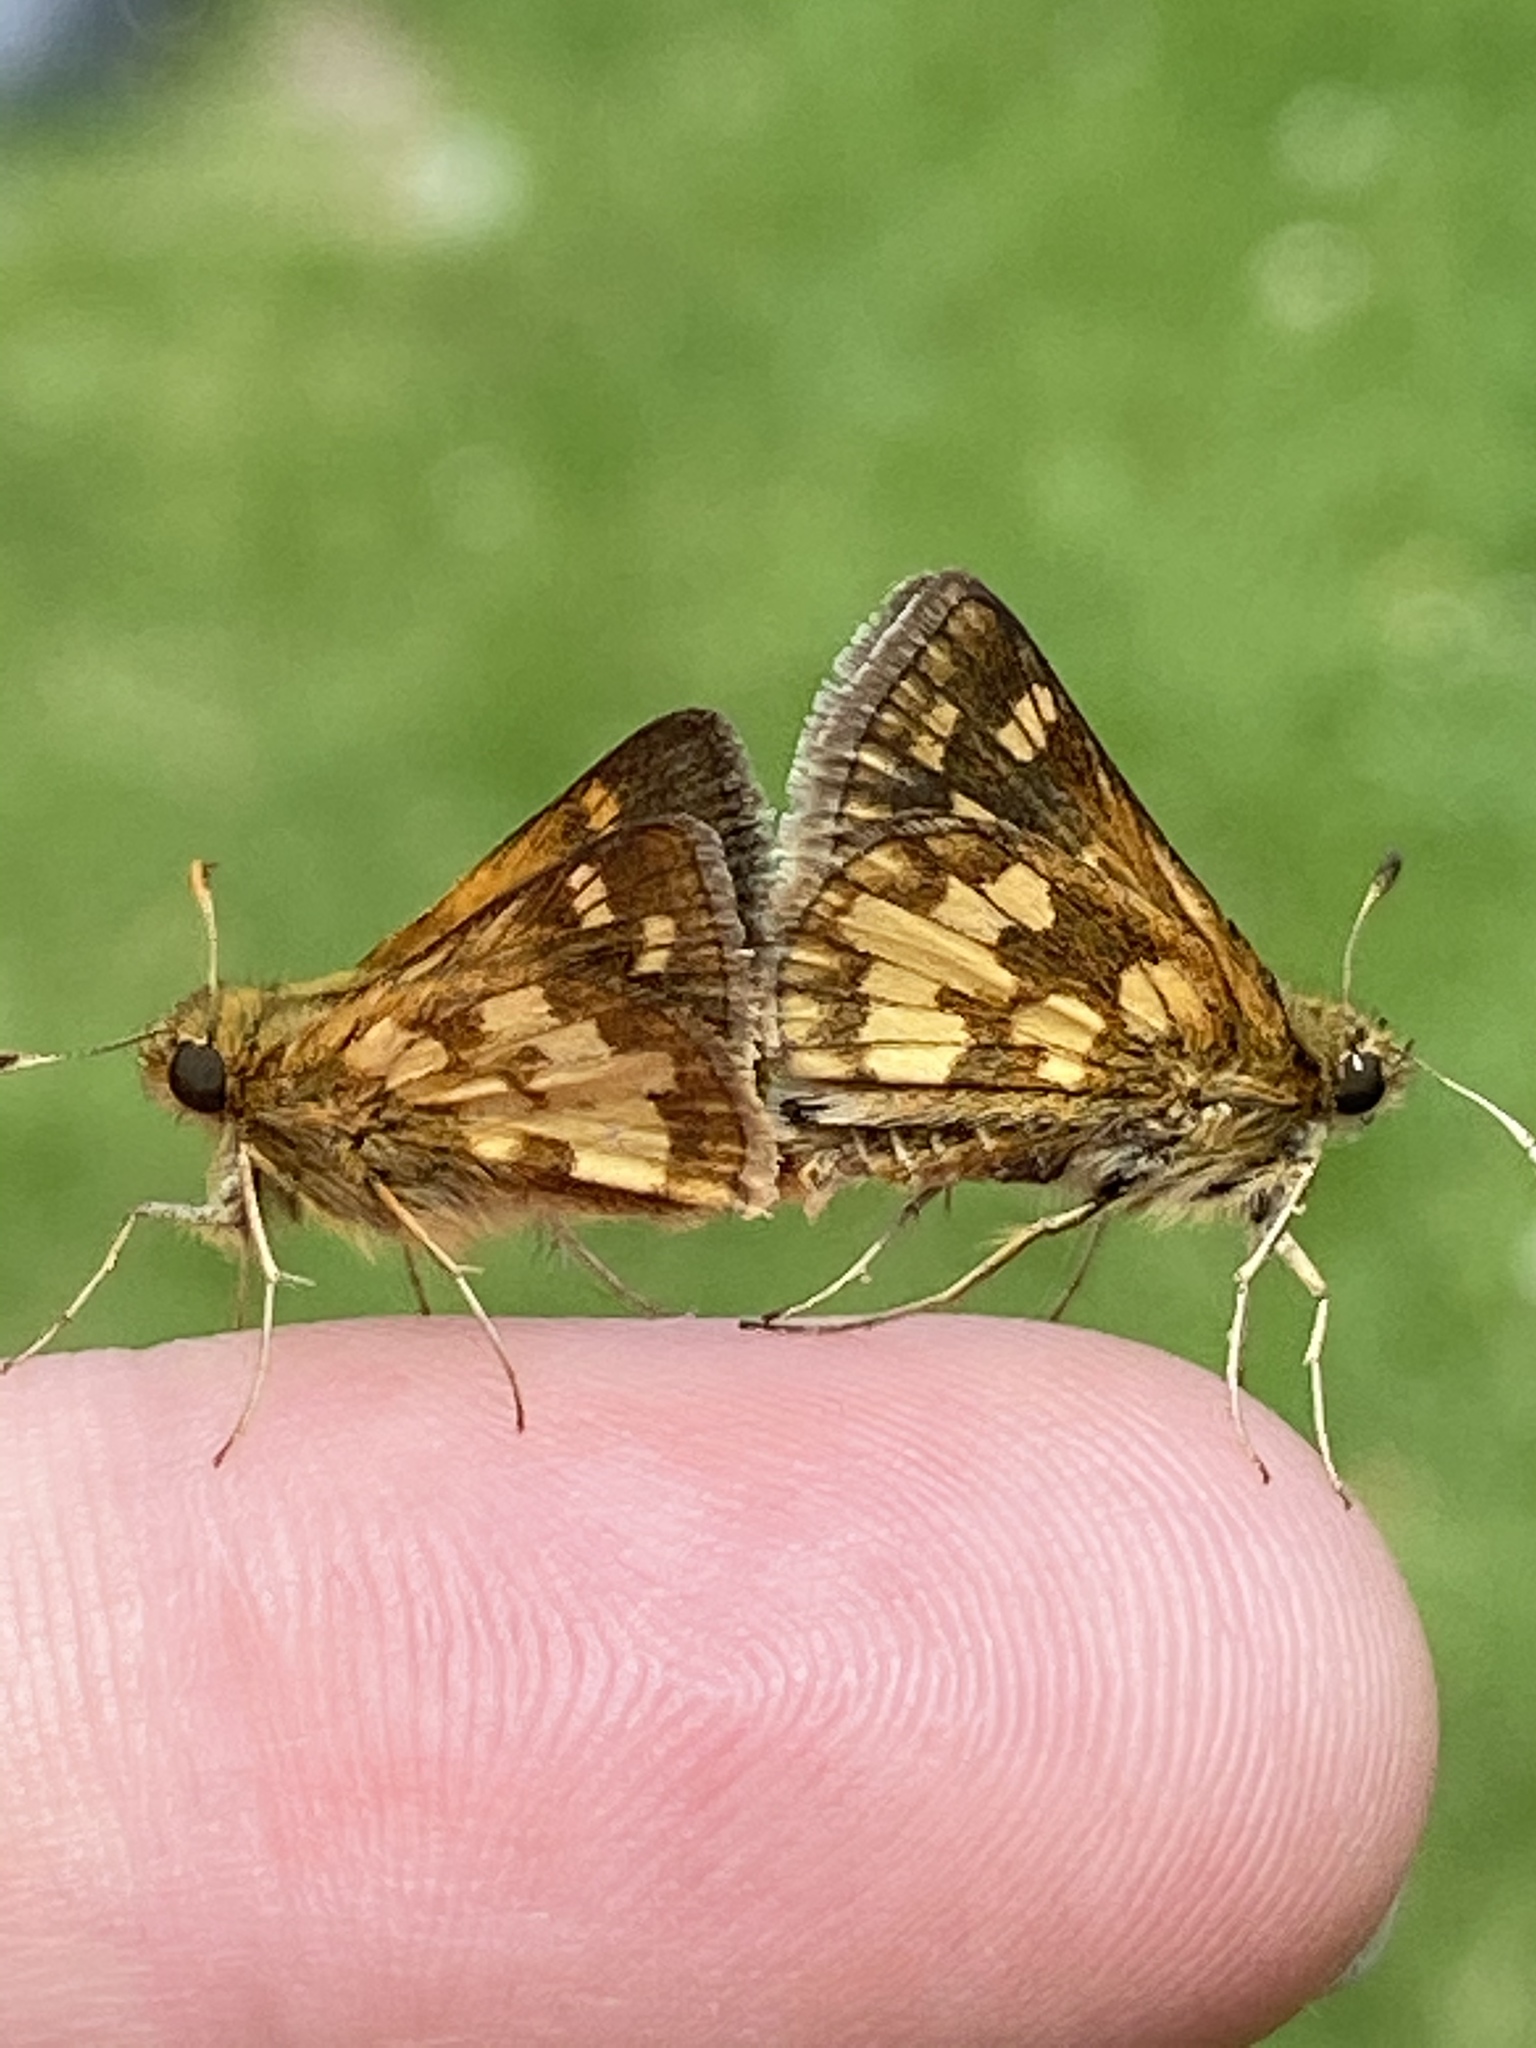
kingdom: Animalia
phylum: Arthropoda
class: Insecta
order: Lepidoptera
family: Hesperiidae
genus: Polites
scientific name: Polites coras
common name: Peck's skipper
